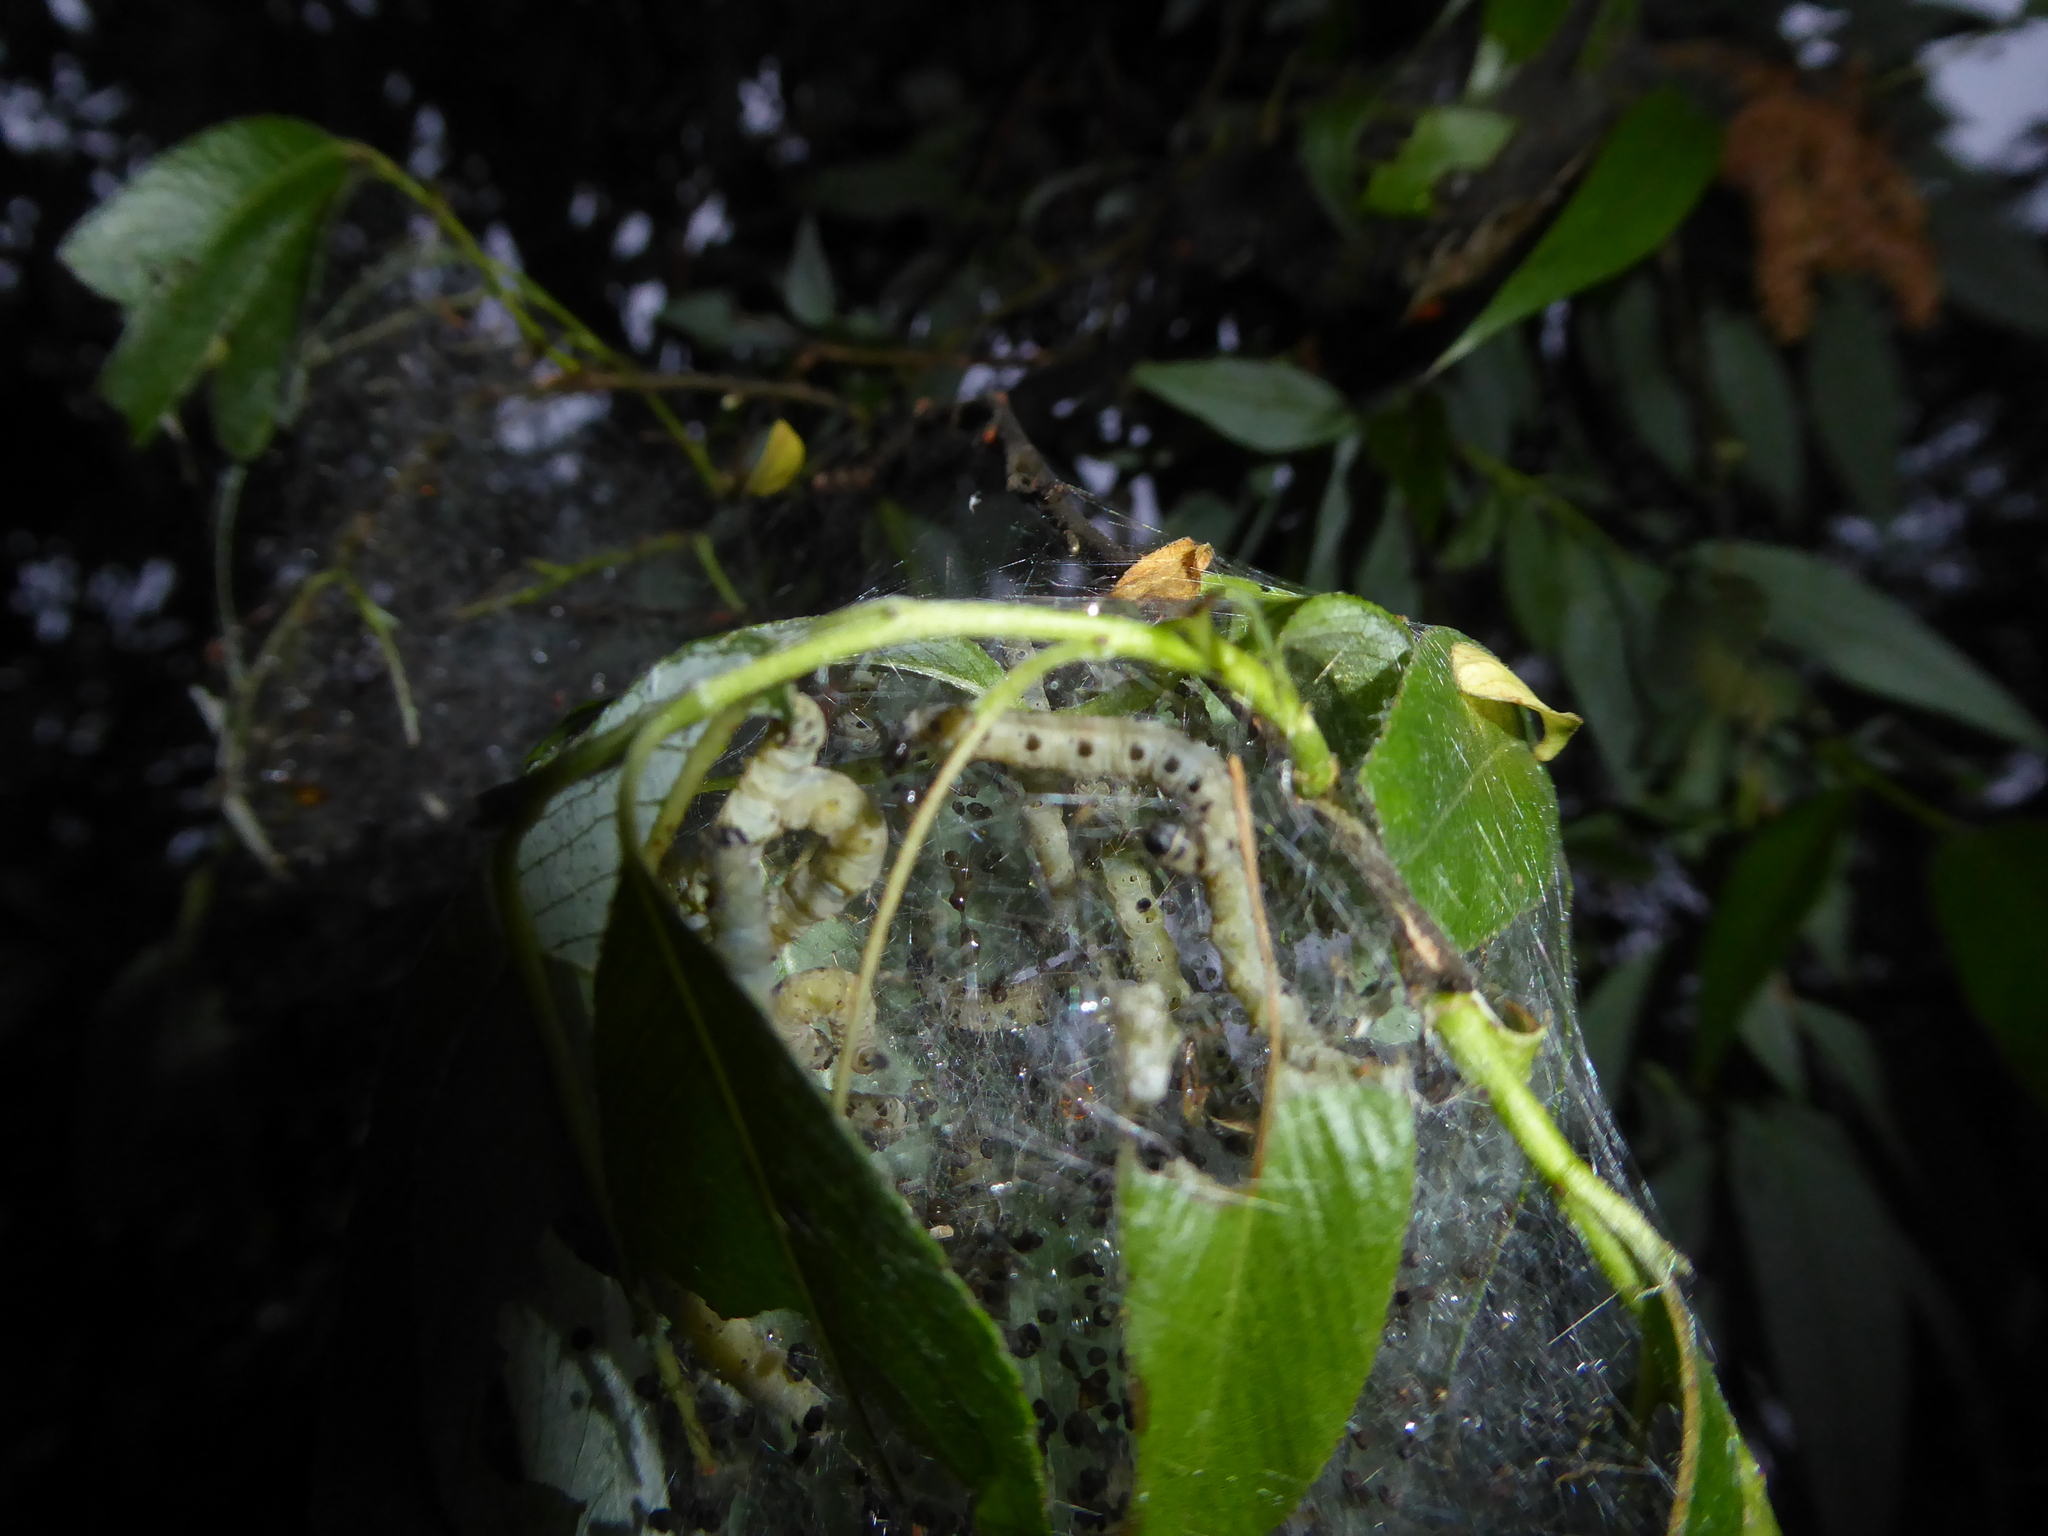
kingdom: Animalia
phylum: Arthropoda
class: Insecta
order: Lepidoptera
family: Yponomeutidae
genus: Yponomeuta
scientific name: Yponomeuta padella
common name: Orchard ermine
